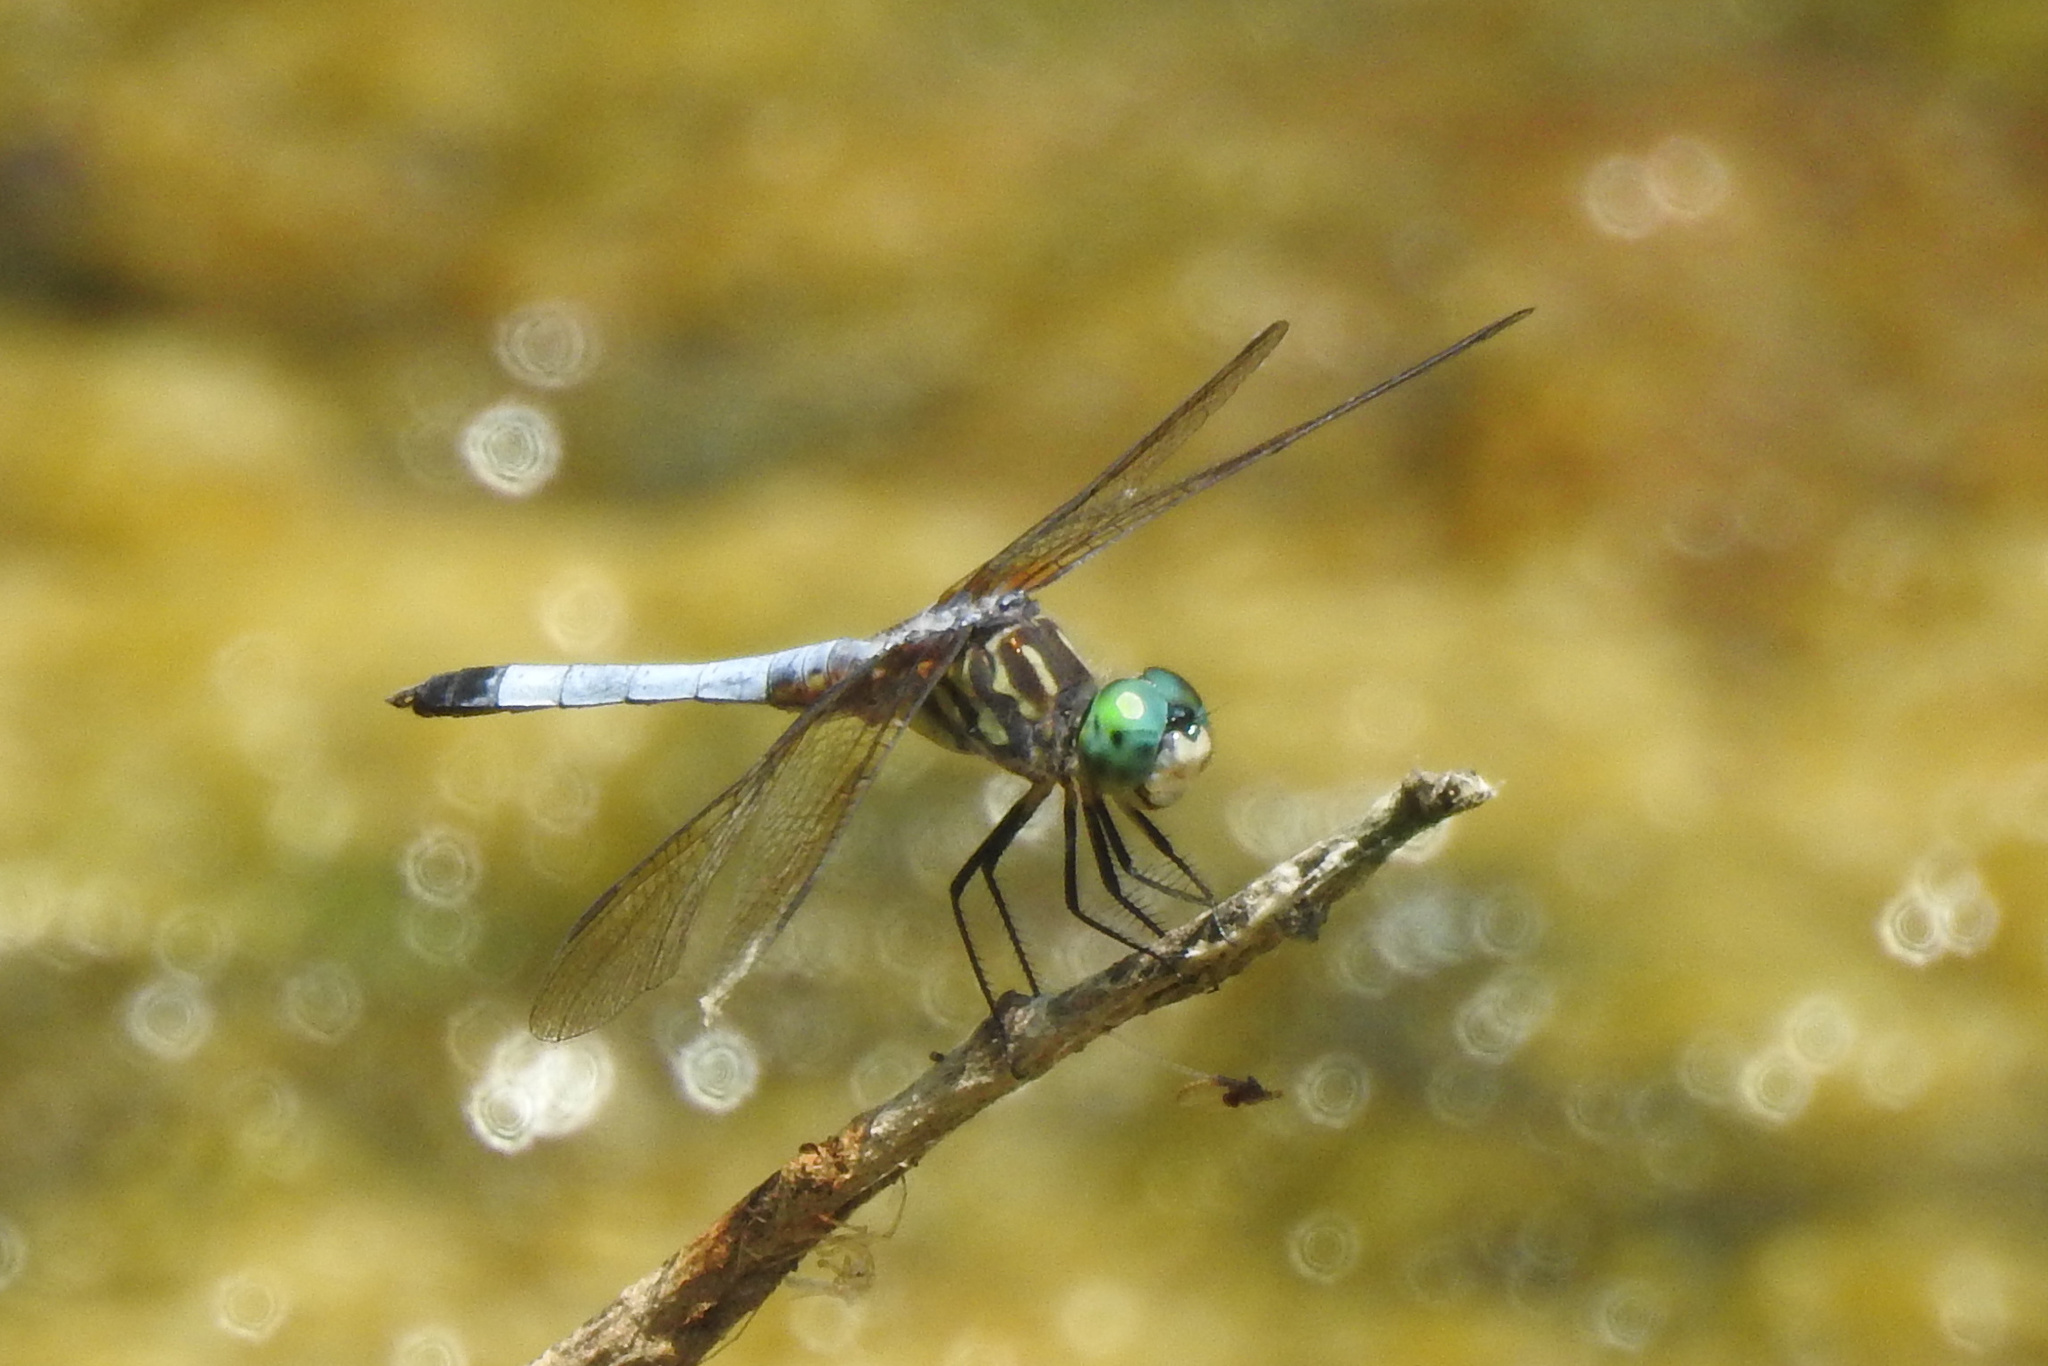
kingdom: Animalia
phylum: Arthropoda
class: Insecta
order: Odonata
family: Libellulidae
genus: Pachydiplax
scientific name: Pachydiplax longipennis
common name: Blue dasher
